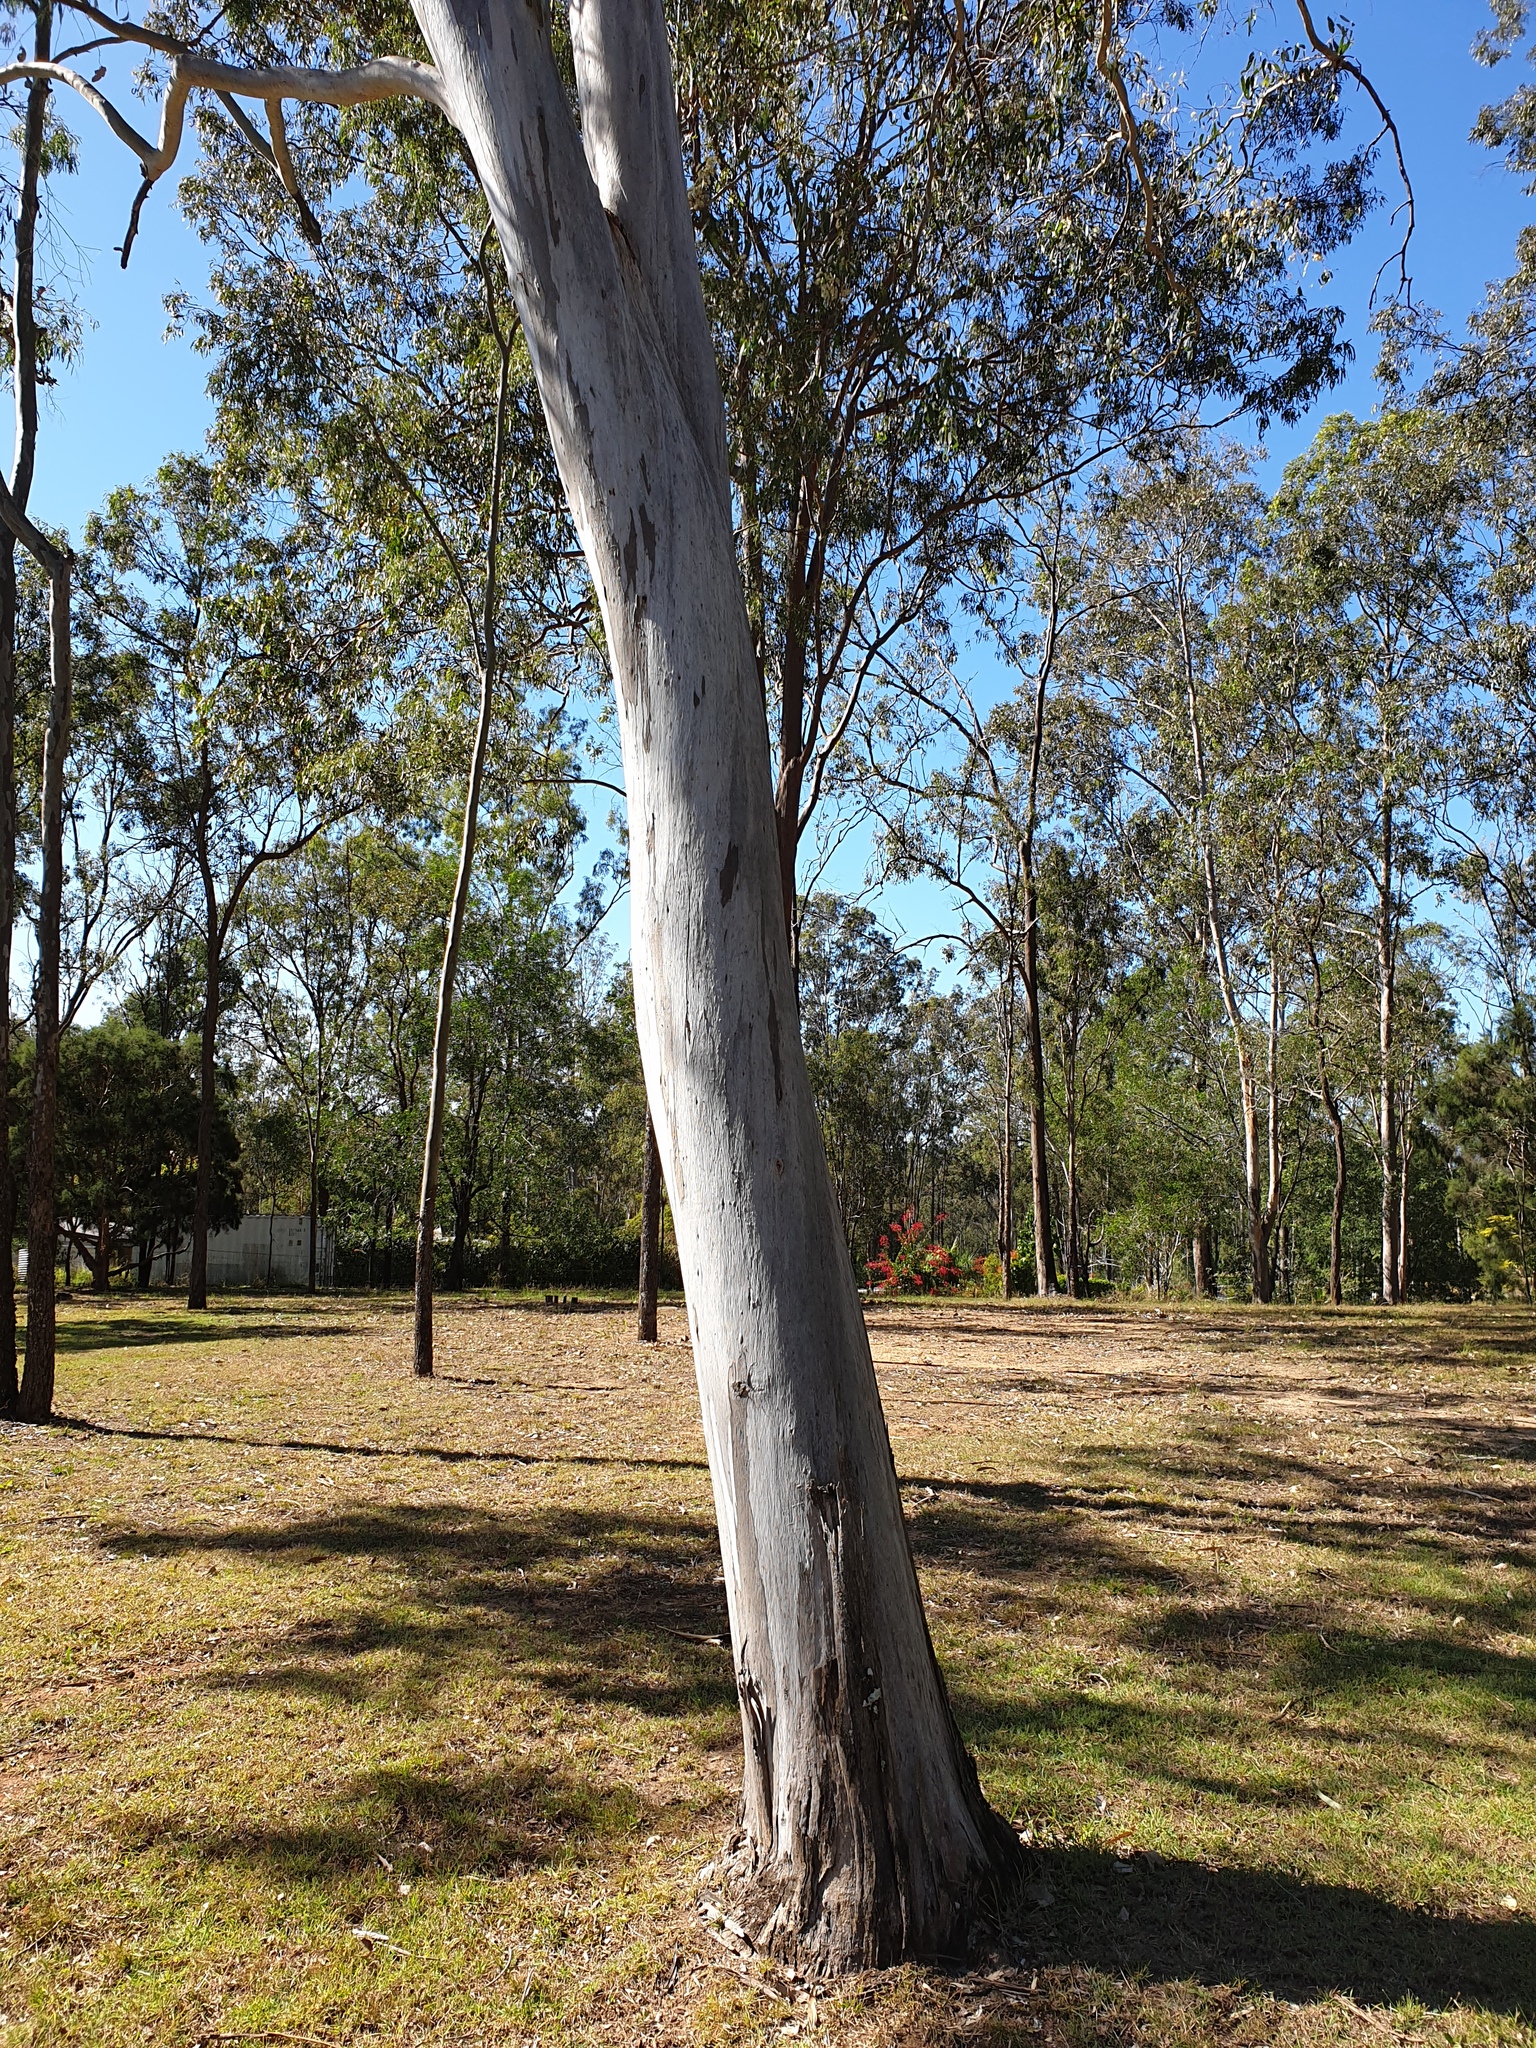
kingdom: Plantae
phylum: Tracheophyta
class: Magnoliopsida
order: Myrtales
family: Myrtaceae
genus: Eucalyptus
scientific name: Eucalyptus tereticornis
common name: Forest redgum
